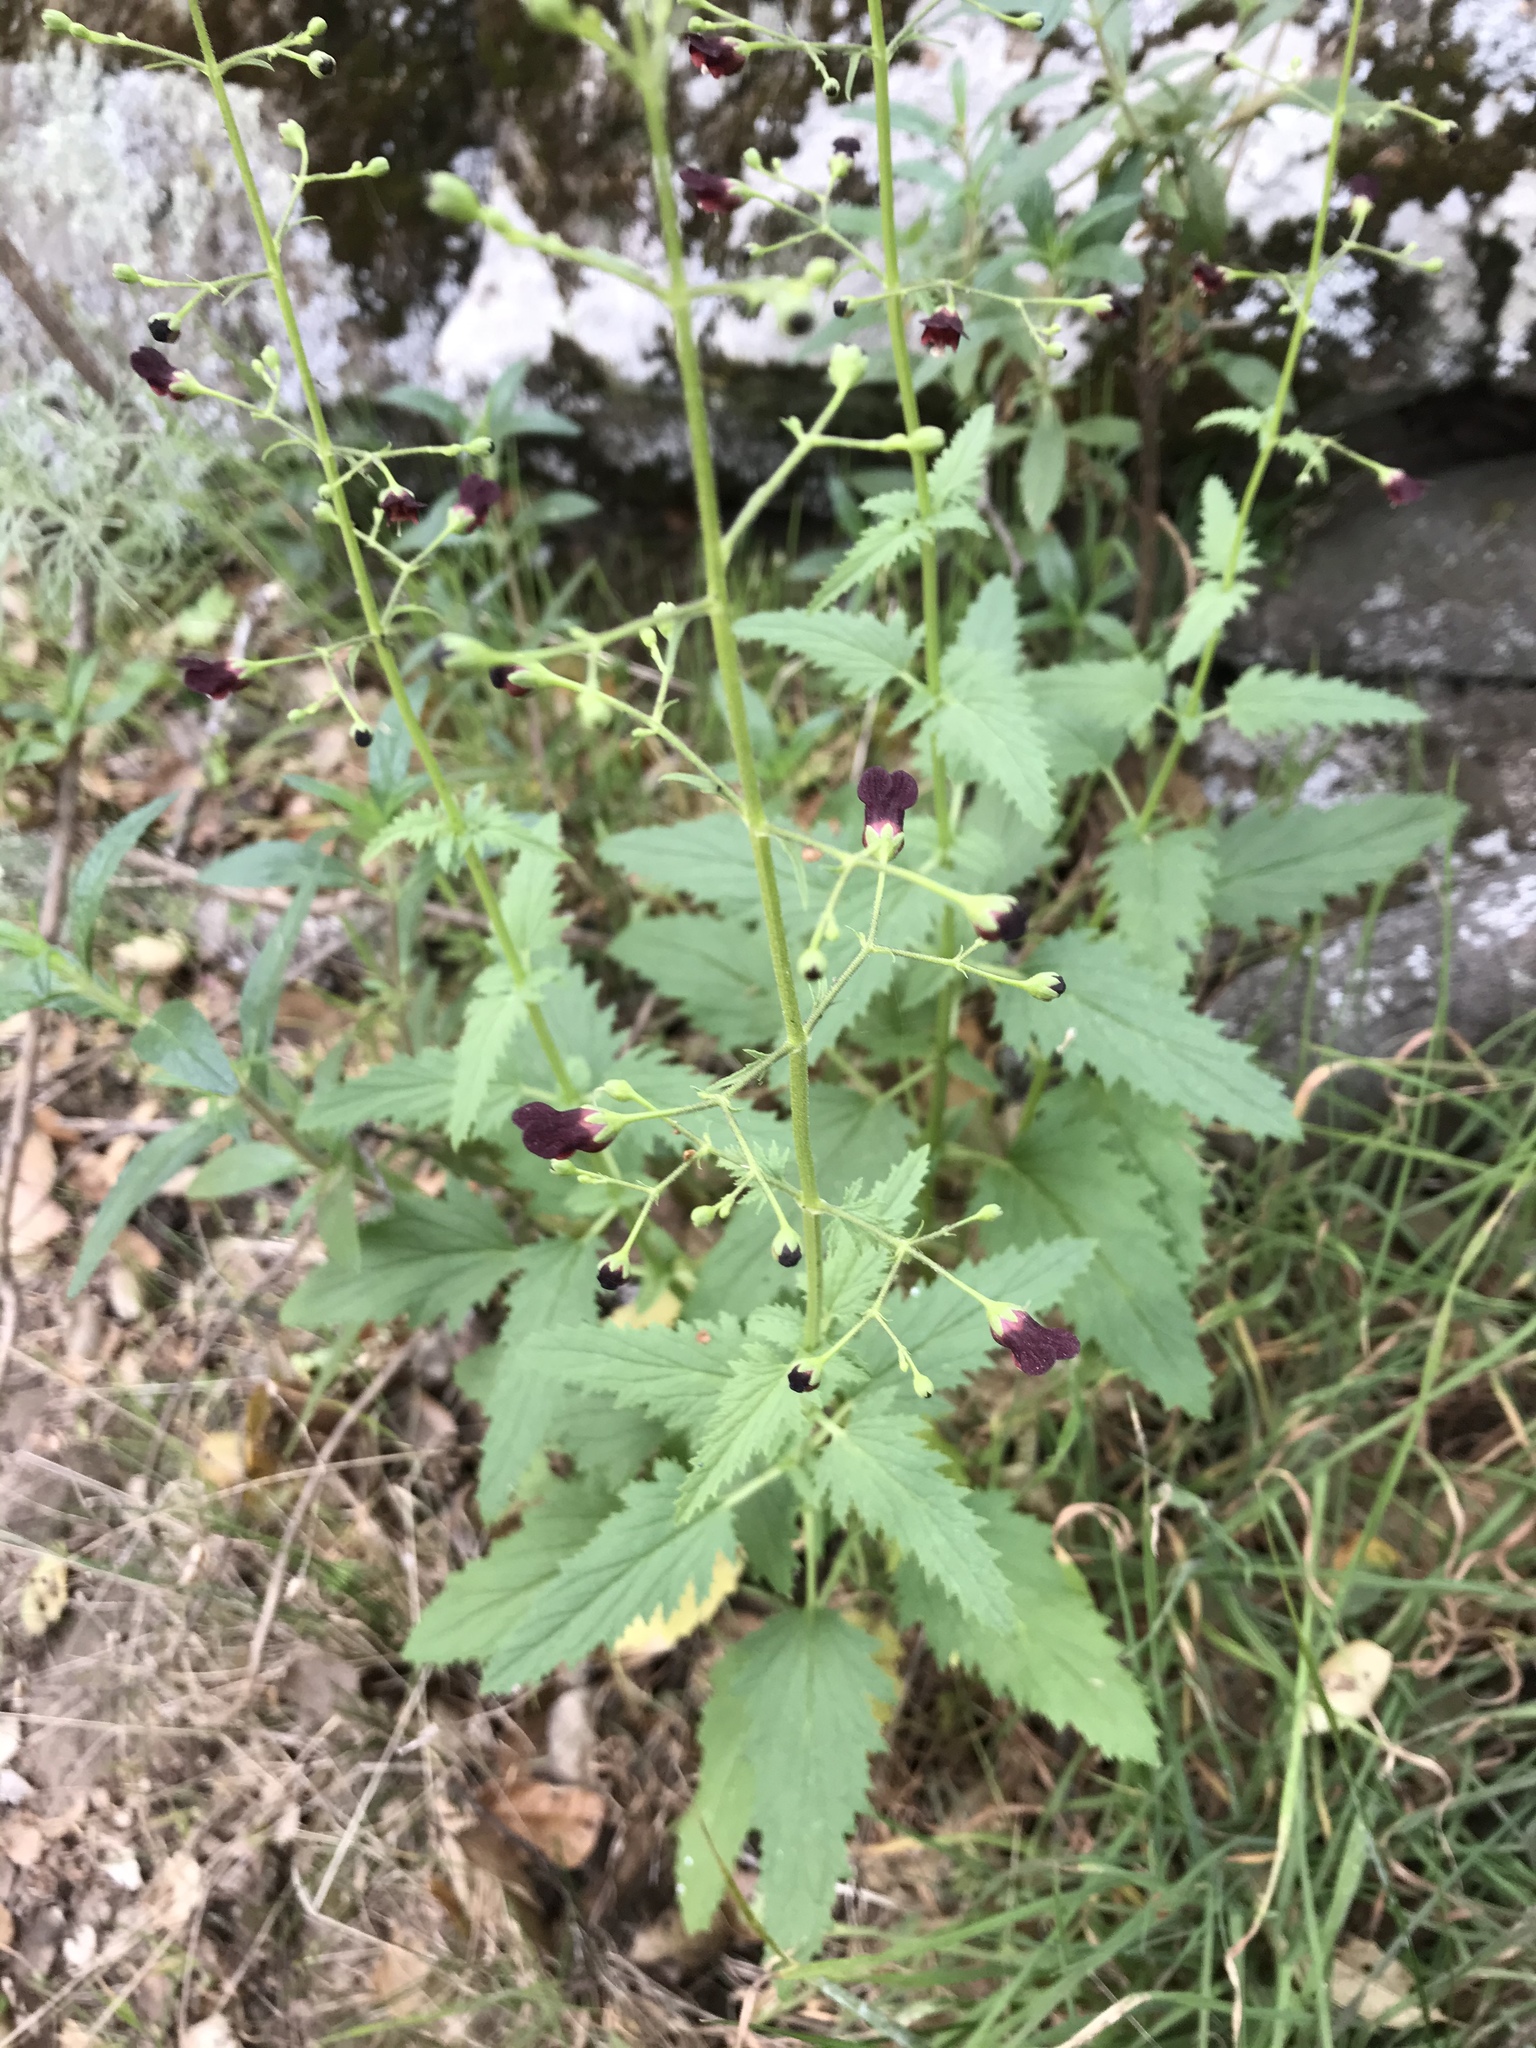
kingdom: Plantae
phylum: Tracheophyta
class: Magnoliopsida
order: Lamiales
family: Scrophulariaceae
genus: Scrophularia
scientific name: Scrophularia californica
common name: California figwort
